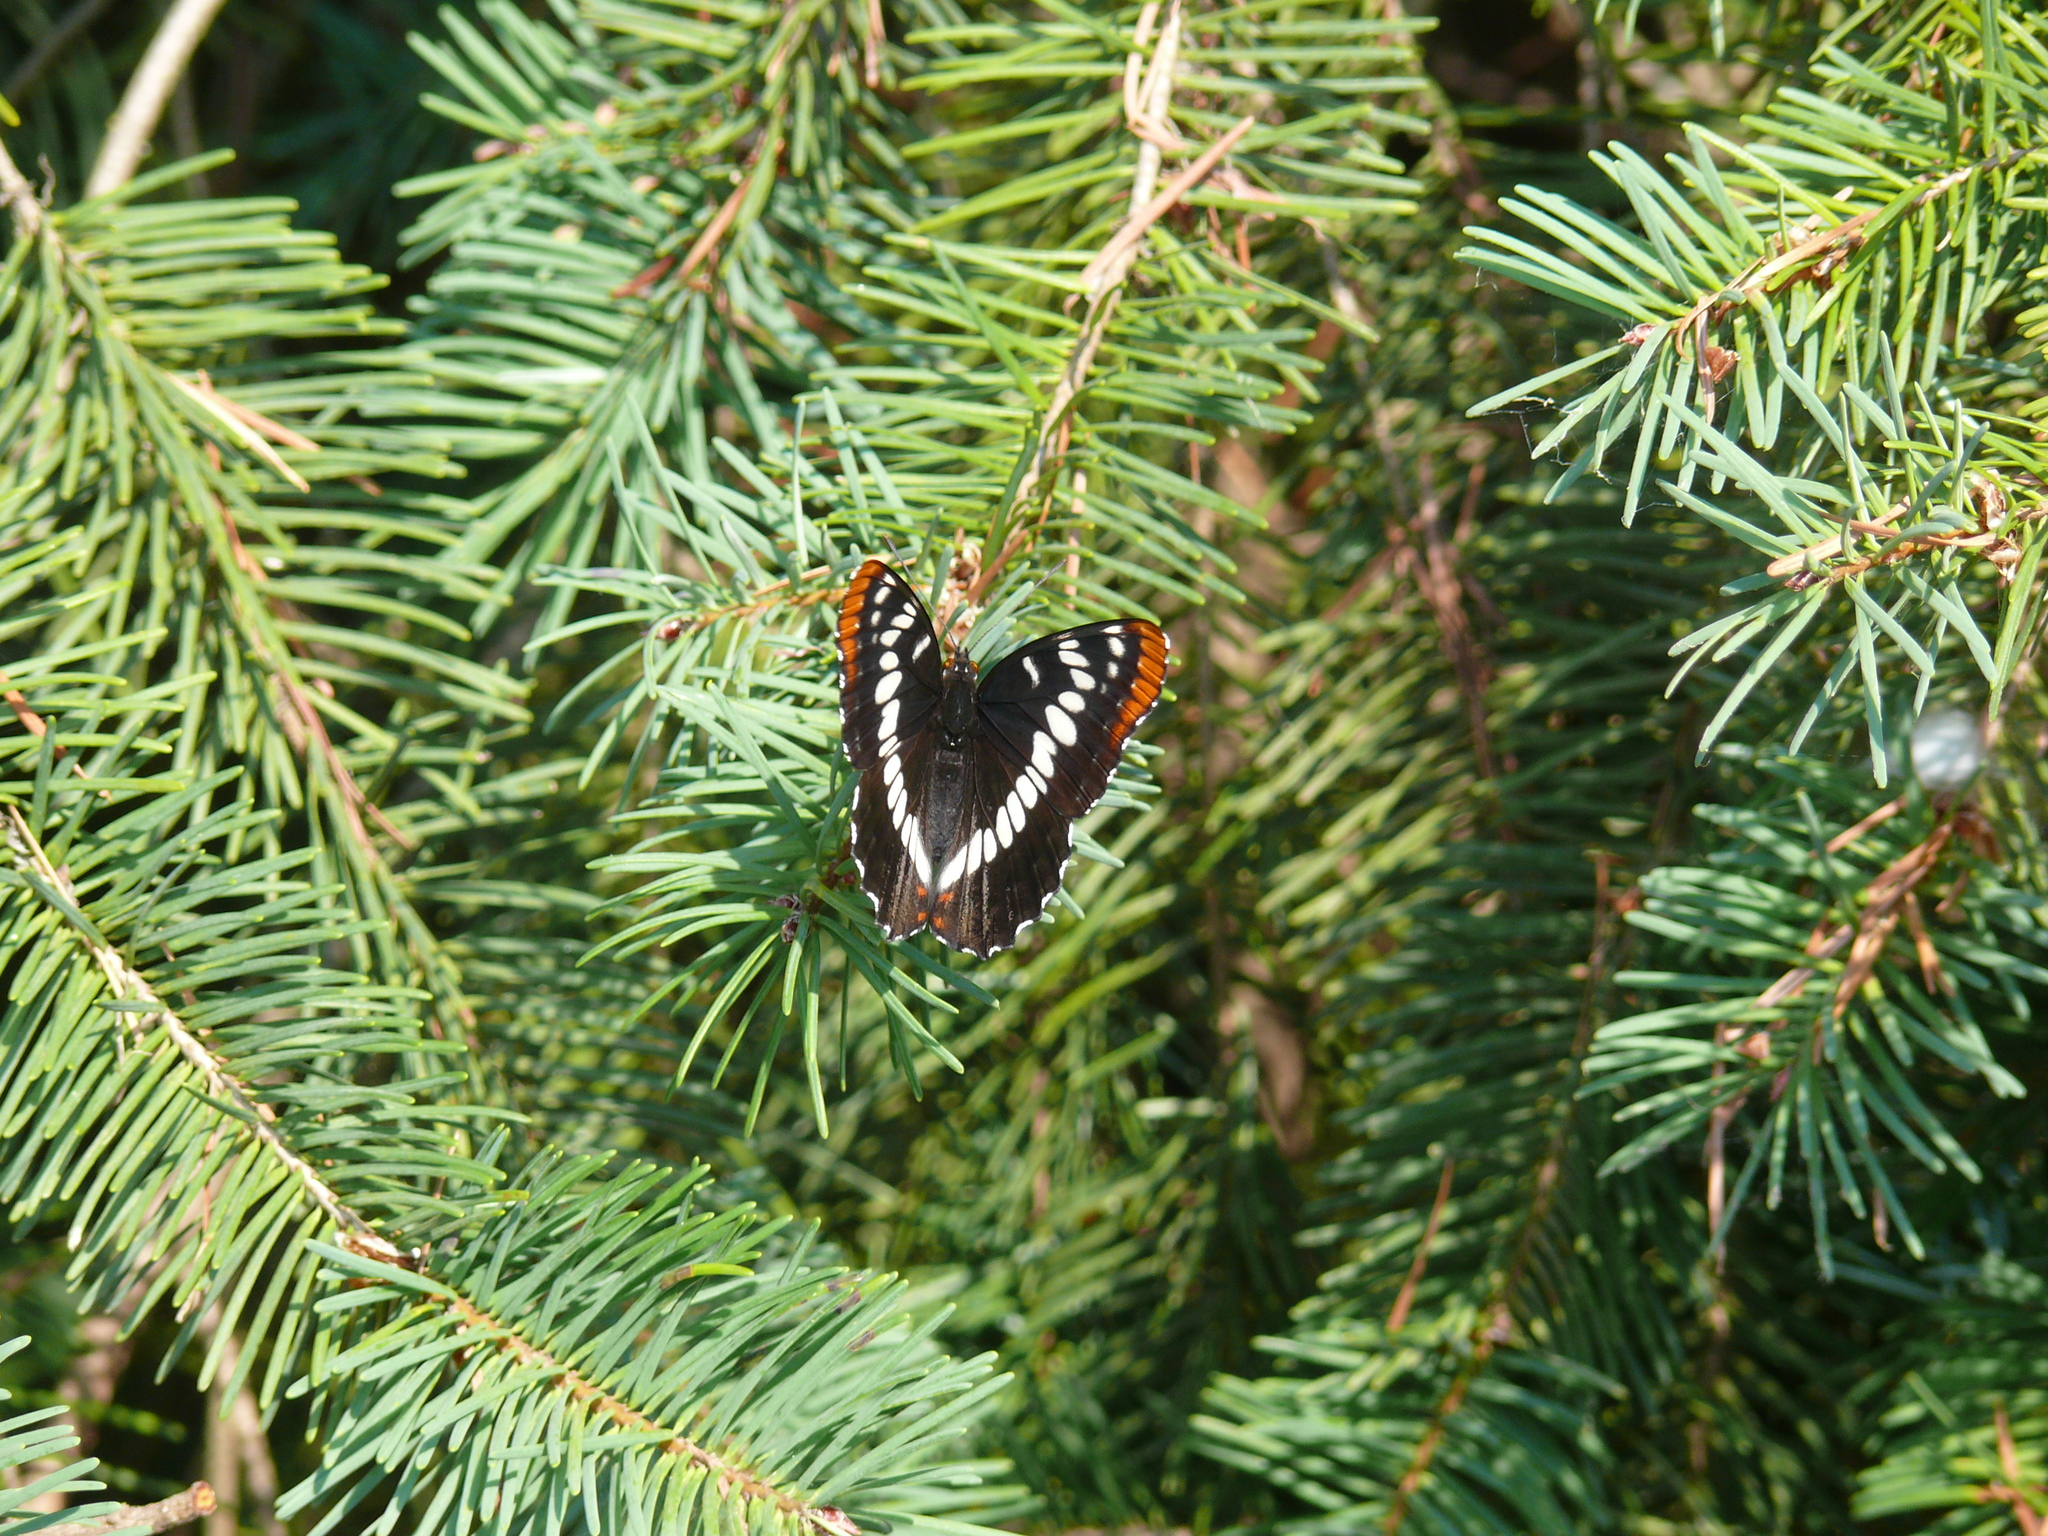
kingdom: Animalia
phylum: Arthropoda
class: Insecta
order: Lepidoptera
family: Nymphalidae
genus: Limenitis
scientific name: Limenitis lorquini
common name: Lorquin's admiral
